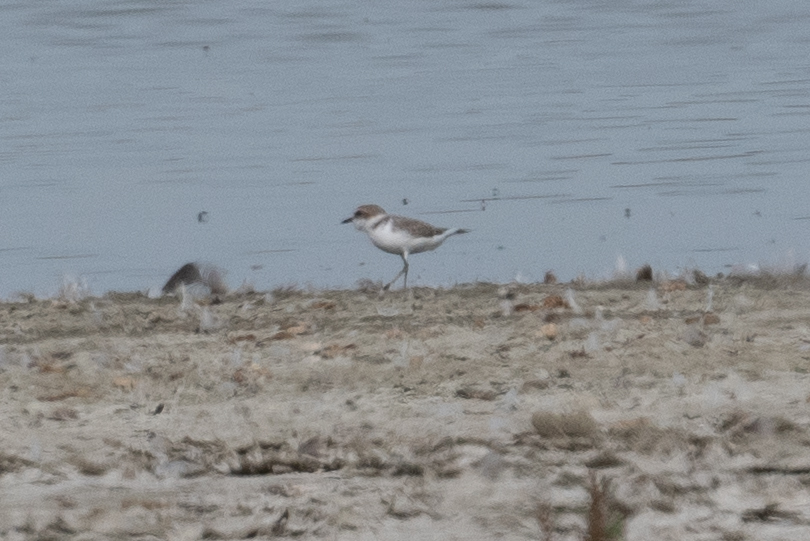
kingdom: Animalia
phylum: Chordata
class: Aves
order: Charadriiformes
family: Charadriidae
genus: Anarhynchus
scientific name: Anarhynchus
